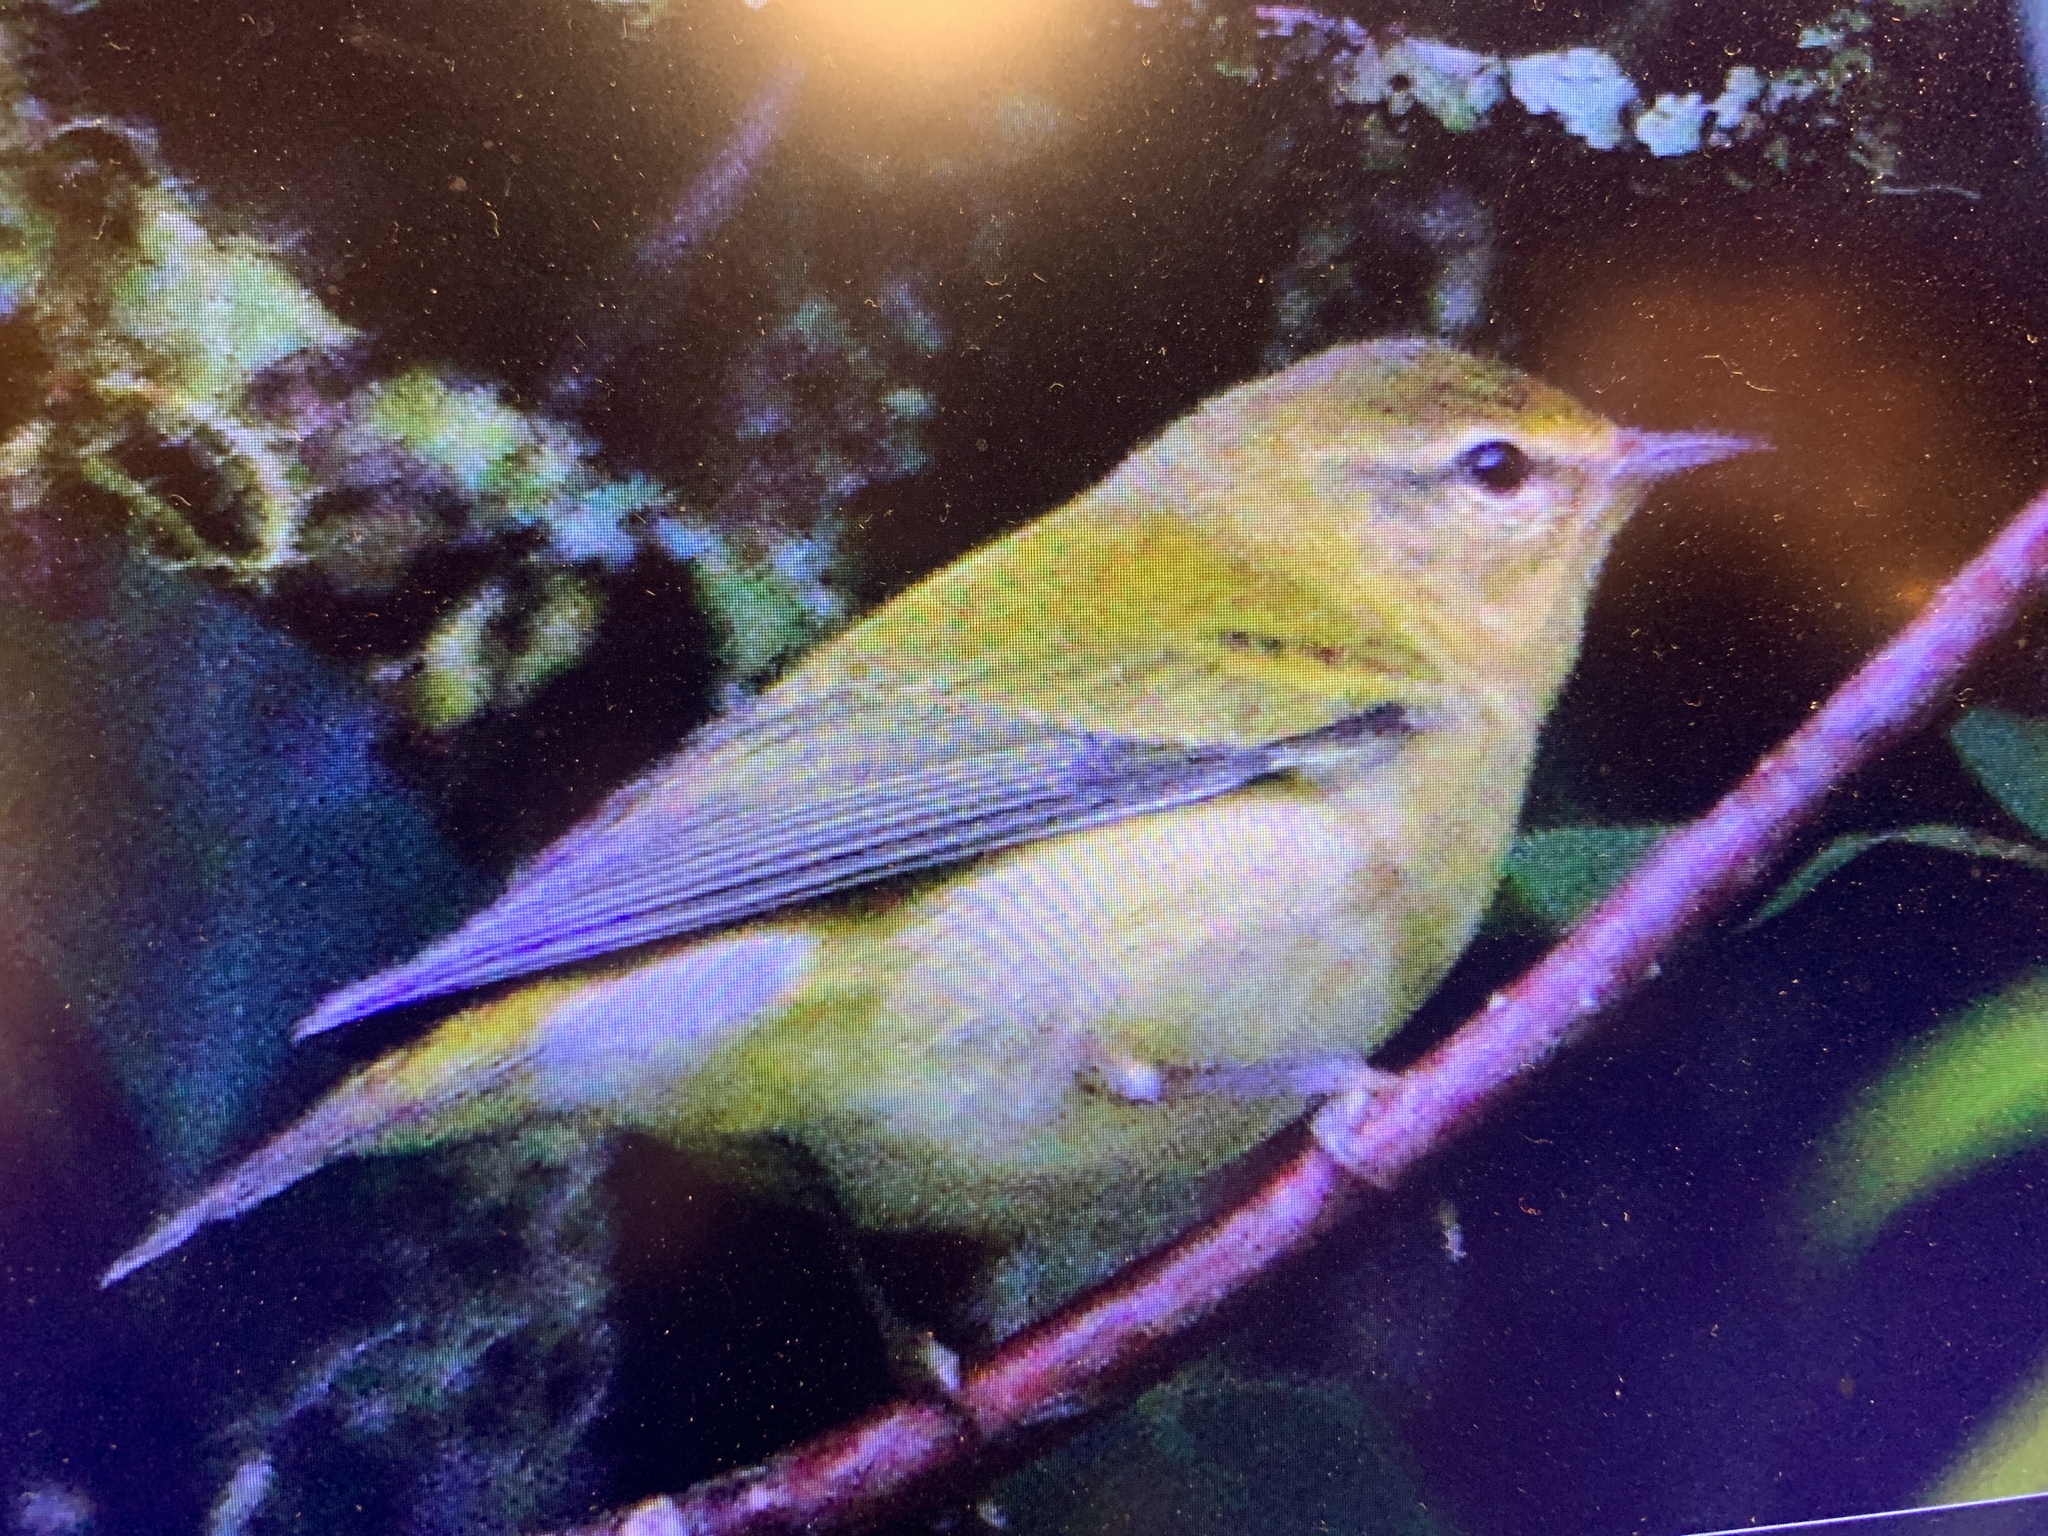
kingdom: Animalia
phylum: Chordata
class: Aves
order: Passeriformes
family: Parulidae
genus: Leiothlypis
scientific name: Leiothlypis peregrina
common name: Tennessee warbler
